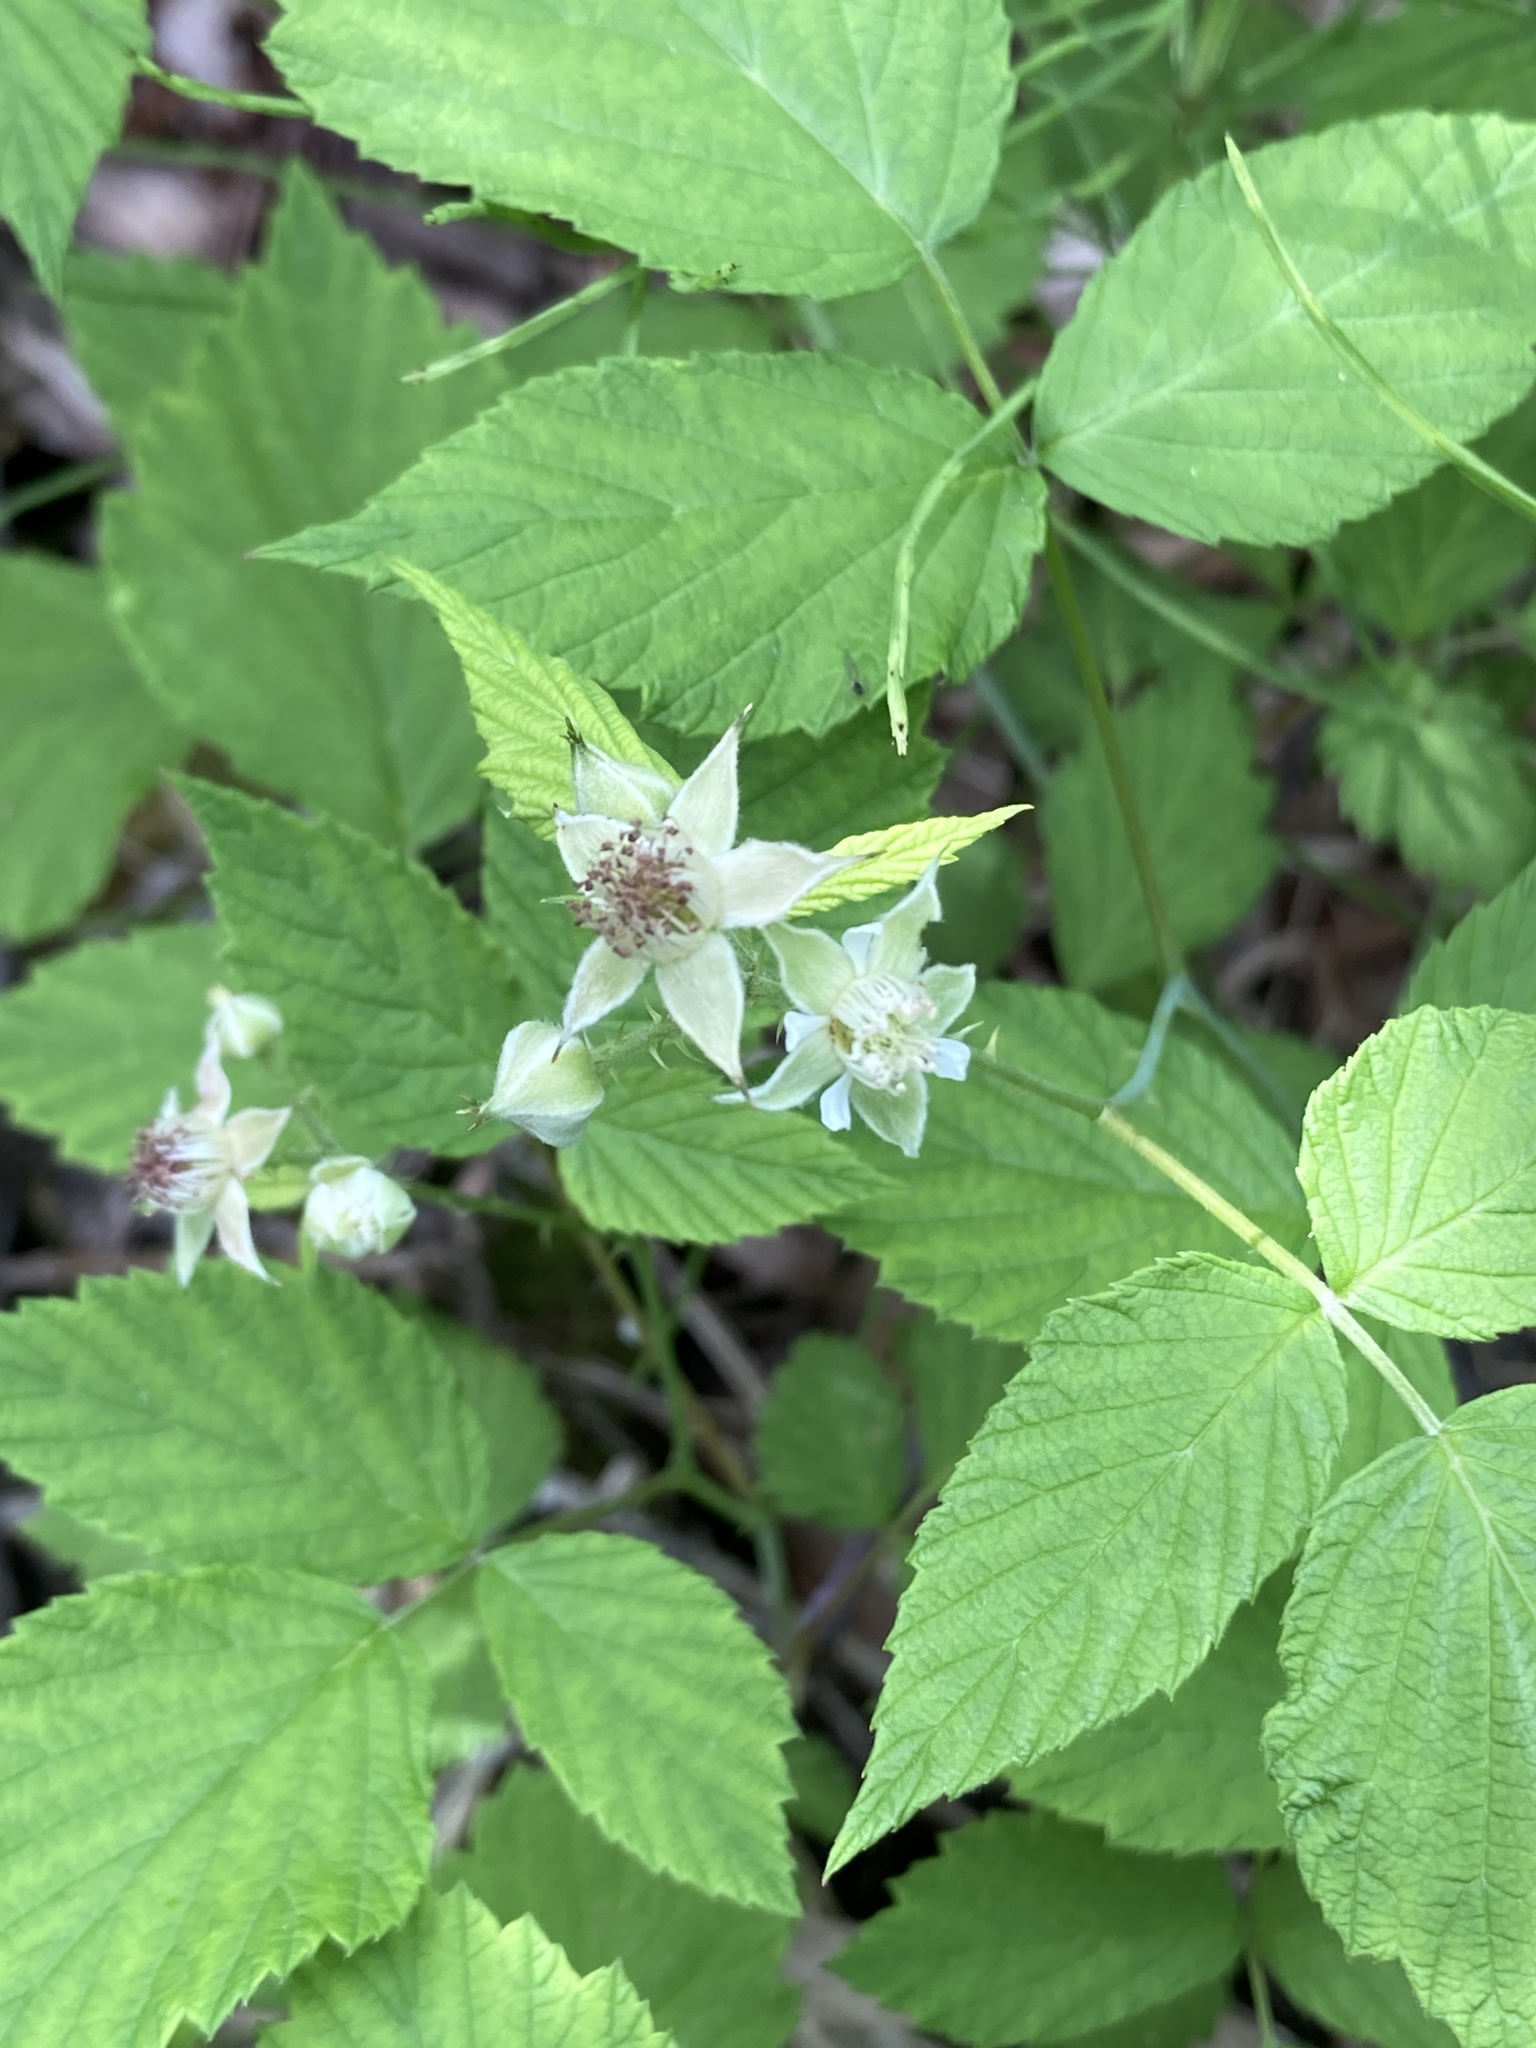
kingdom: Plantae
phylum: Tracheophyta
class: Magnoliopsida
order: Rosales
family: Rosaceae
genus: Rubus
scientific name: Rubus occidentalis
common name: Black raspberry
